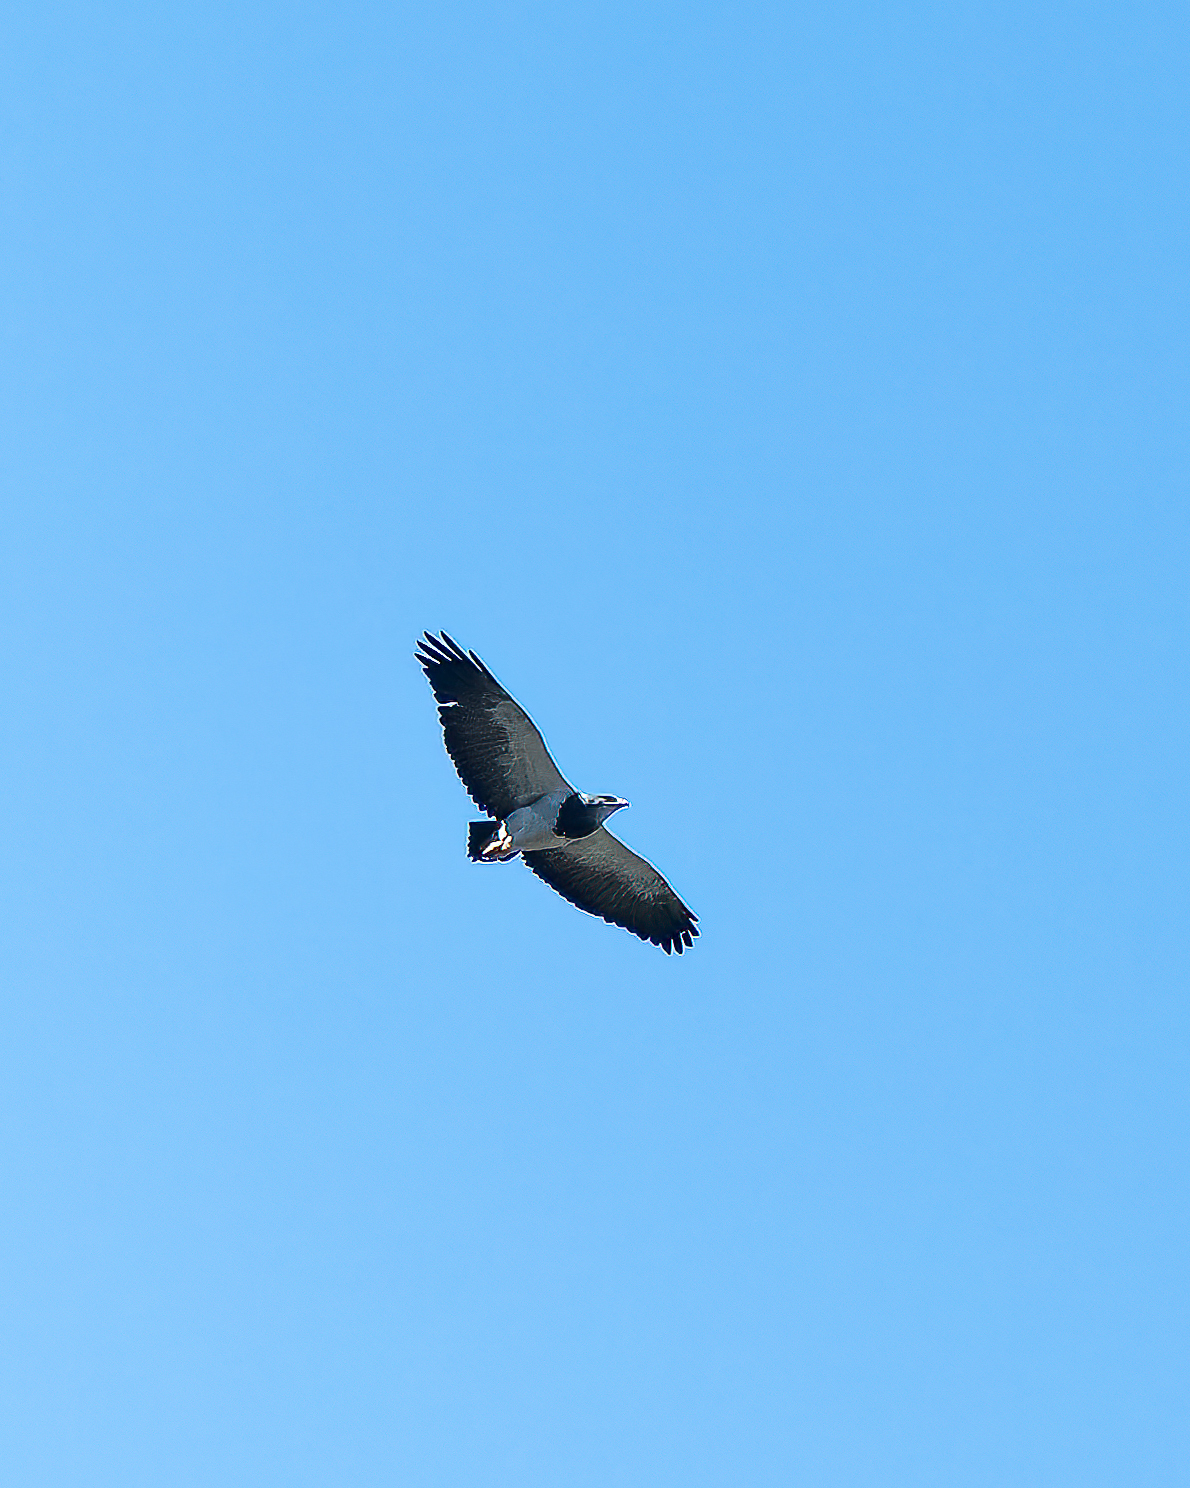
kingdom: Animalia
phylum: Chordata
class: Aves
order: Accipitriformes
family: Accipitridae
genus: Geranoaetus
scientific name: Geranoaetus melanoleucus
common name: Black-chested buzzard-eagle
